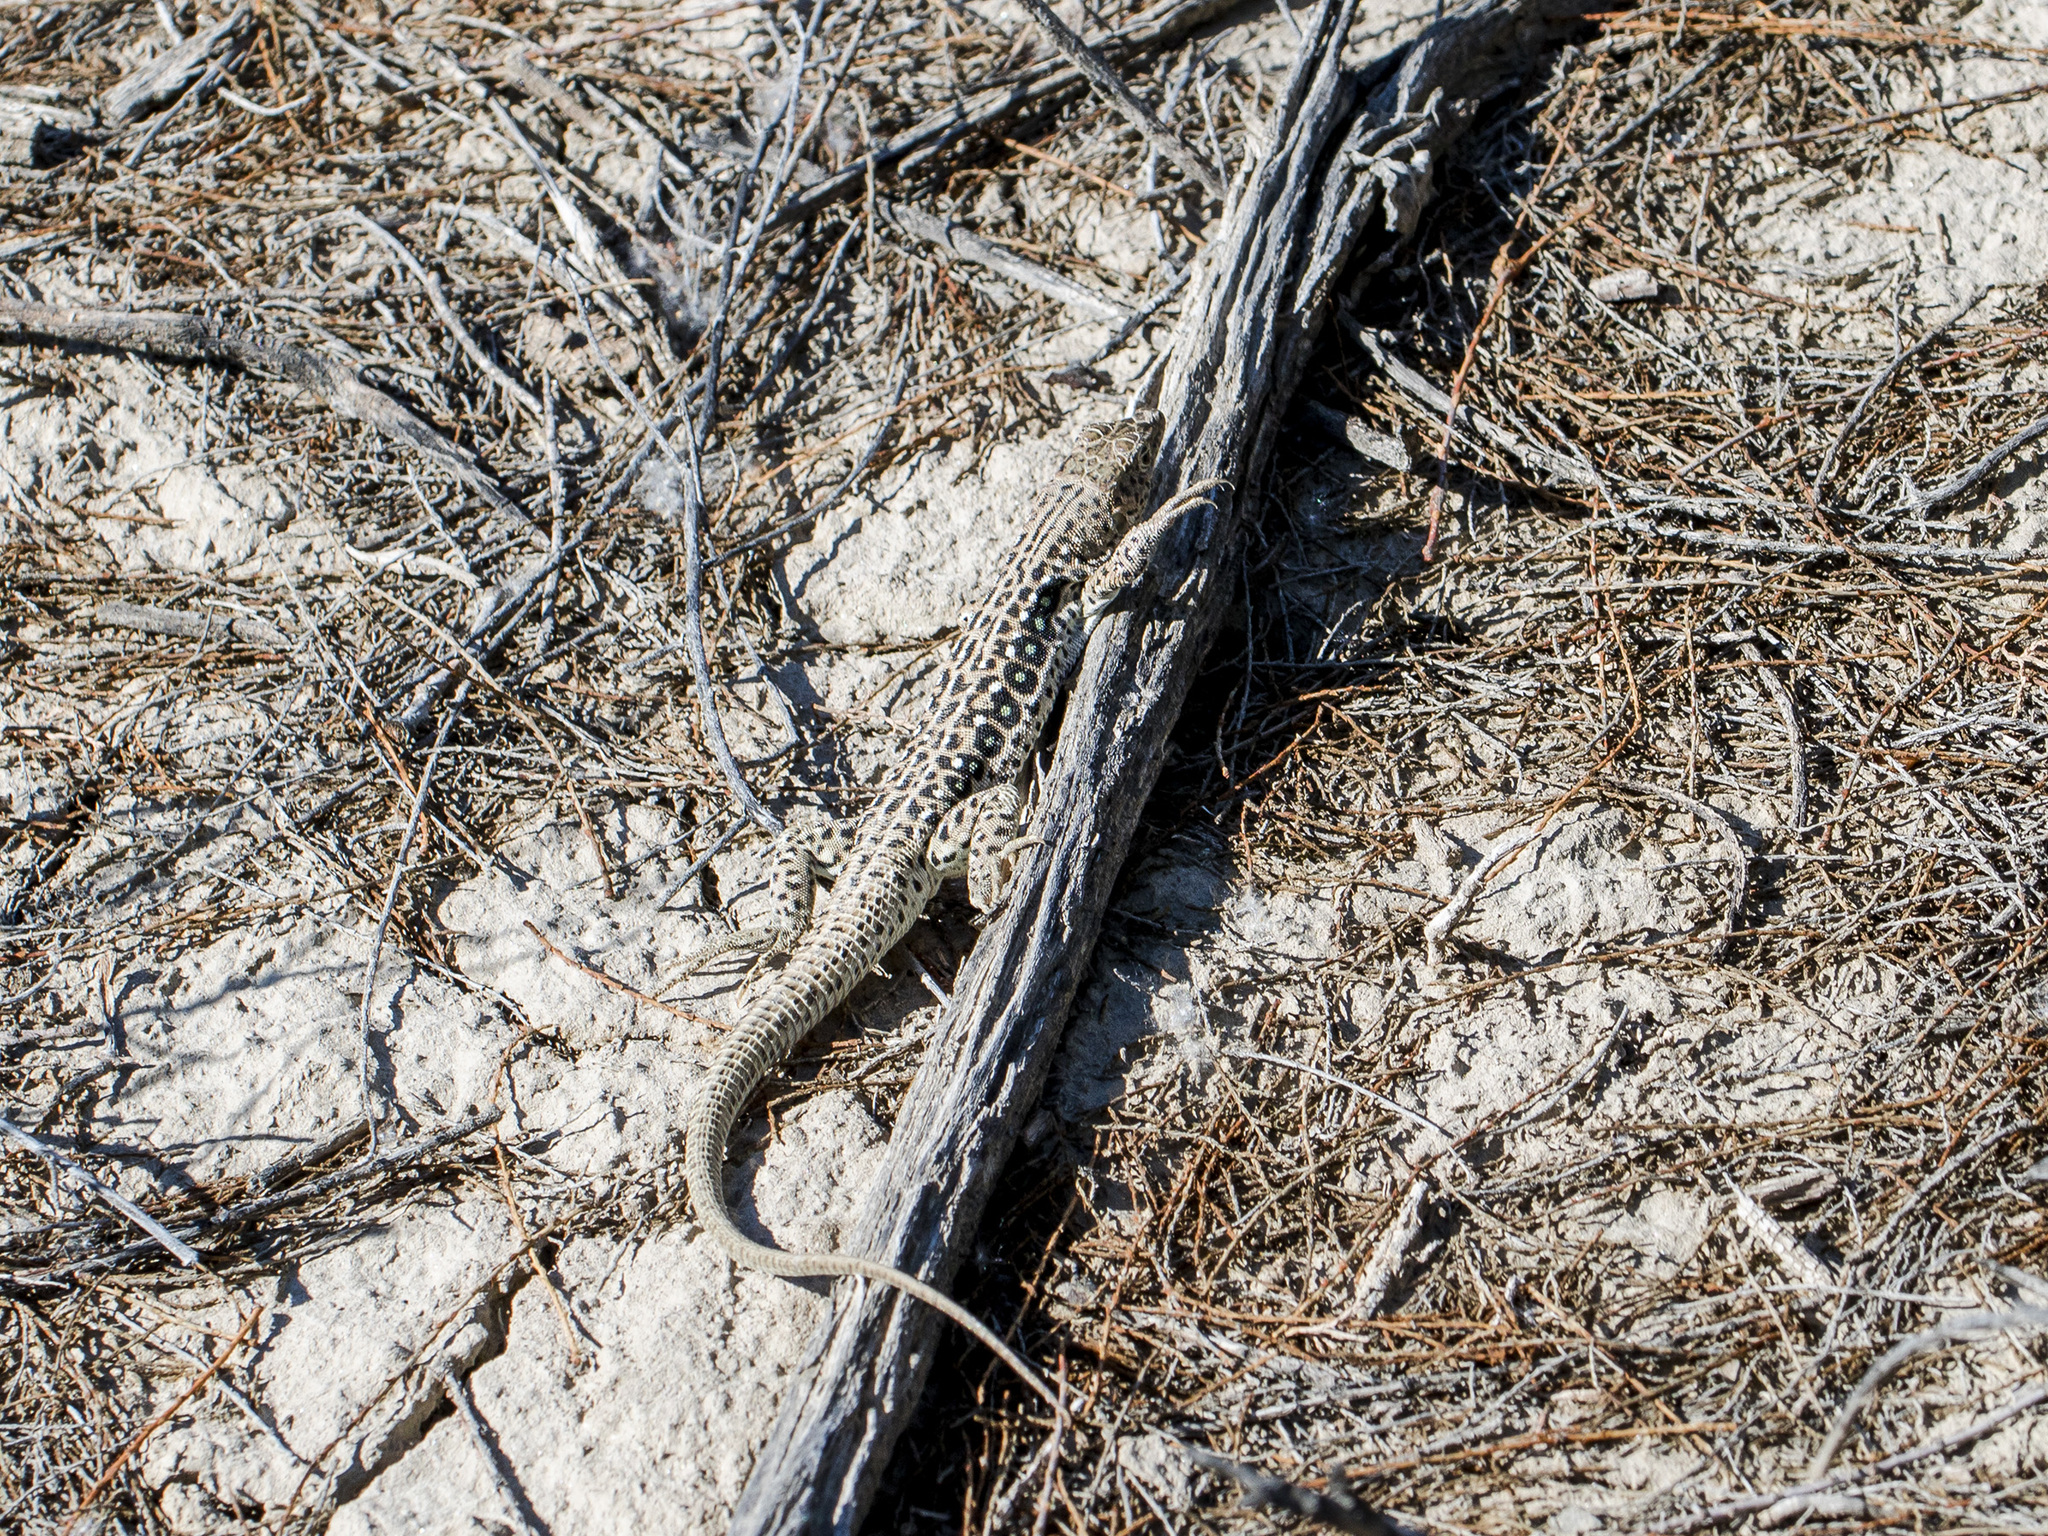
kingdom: Animalia
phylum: Chordata
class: Squamata
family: Lacertidae
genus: Eremias
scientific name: Eremias velox
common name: Central asian racerunner
